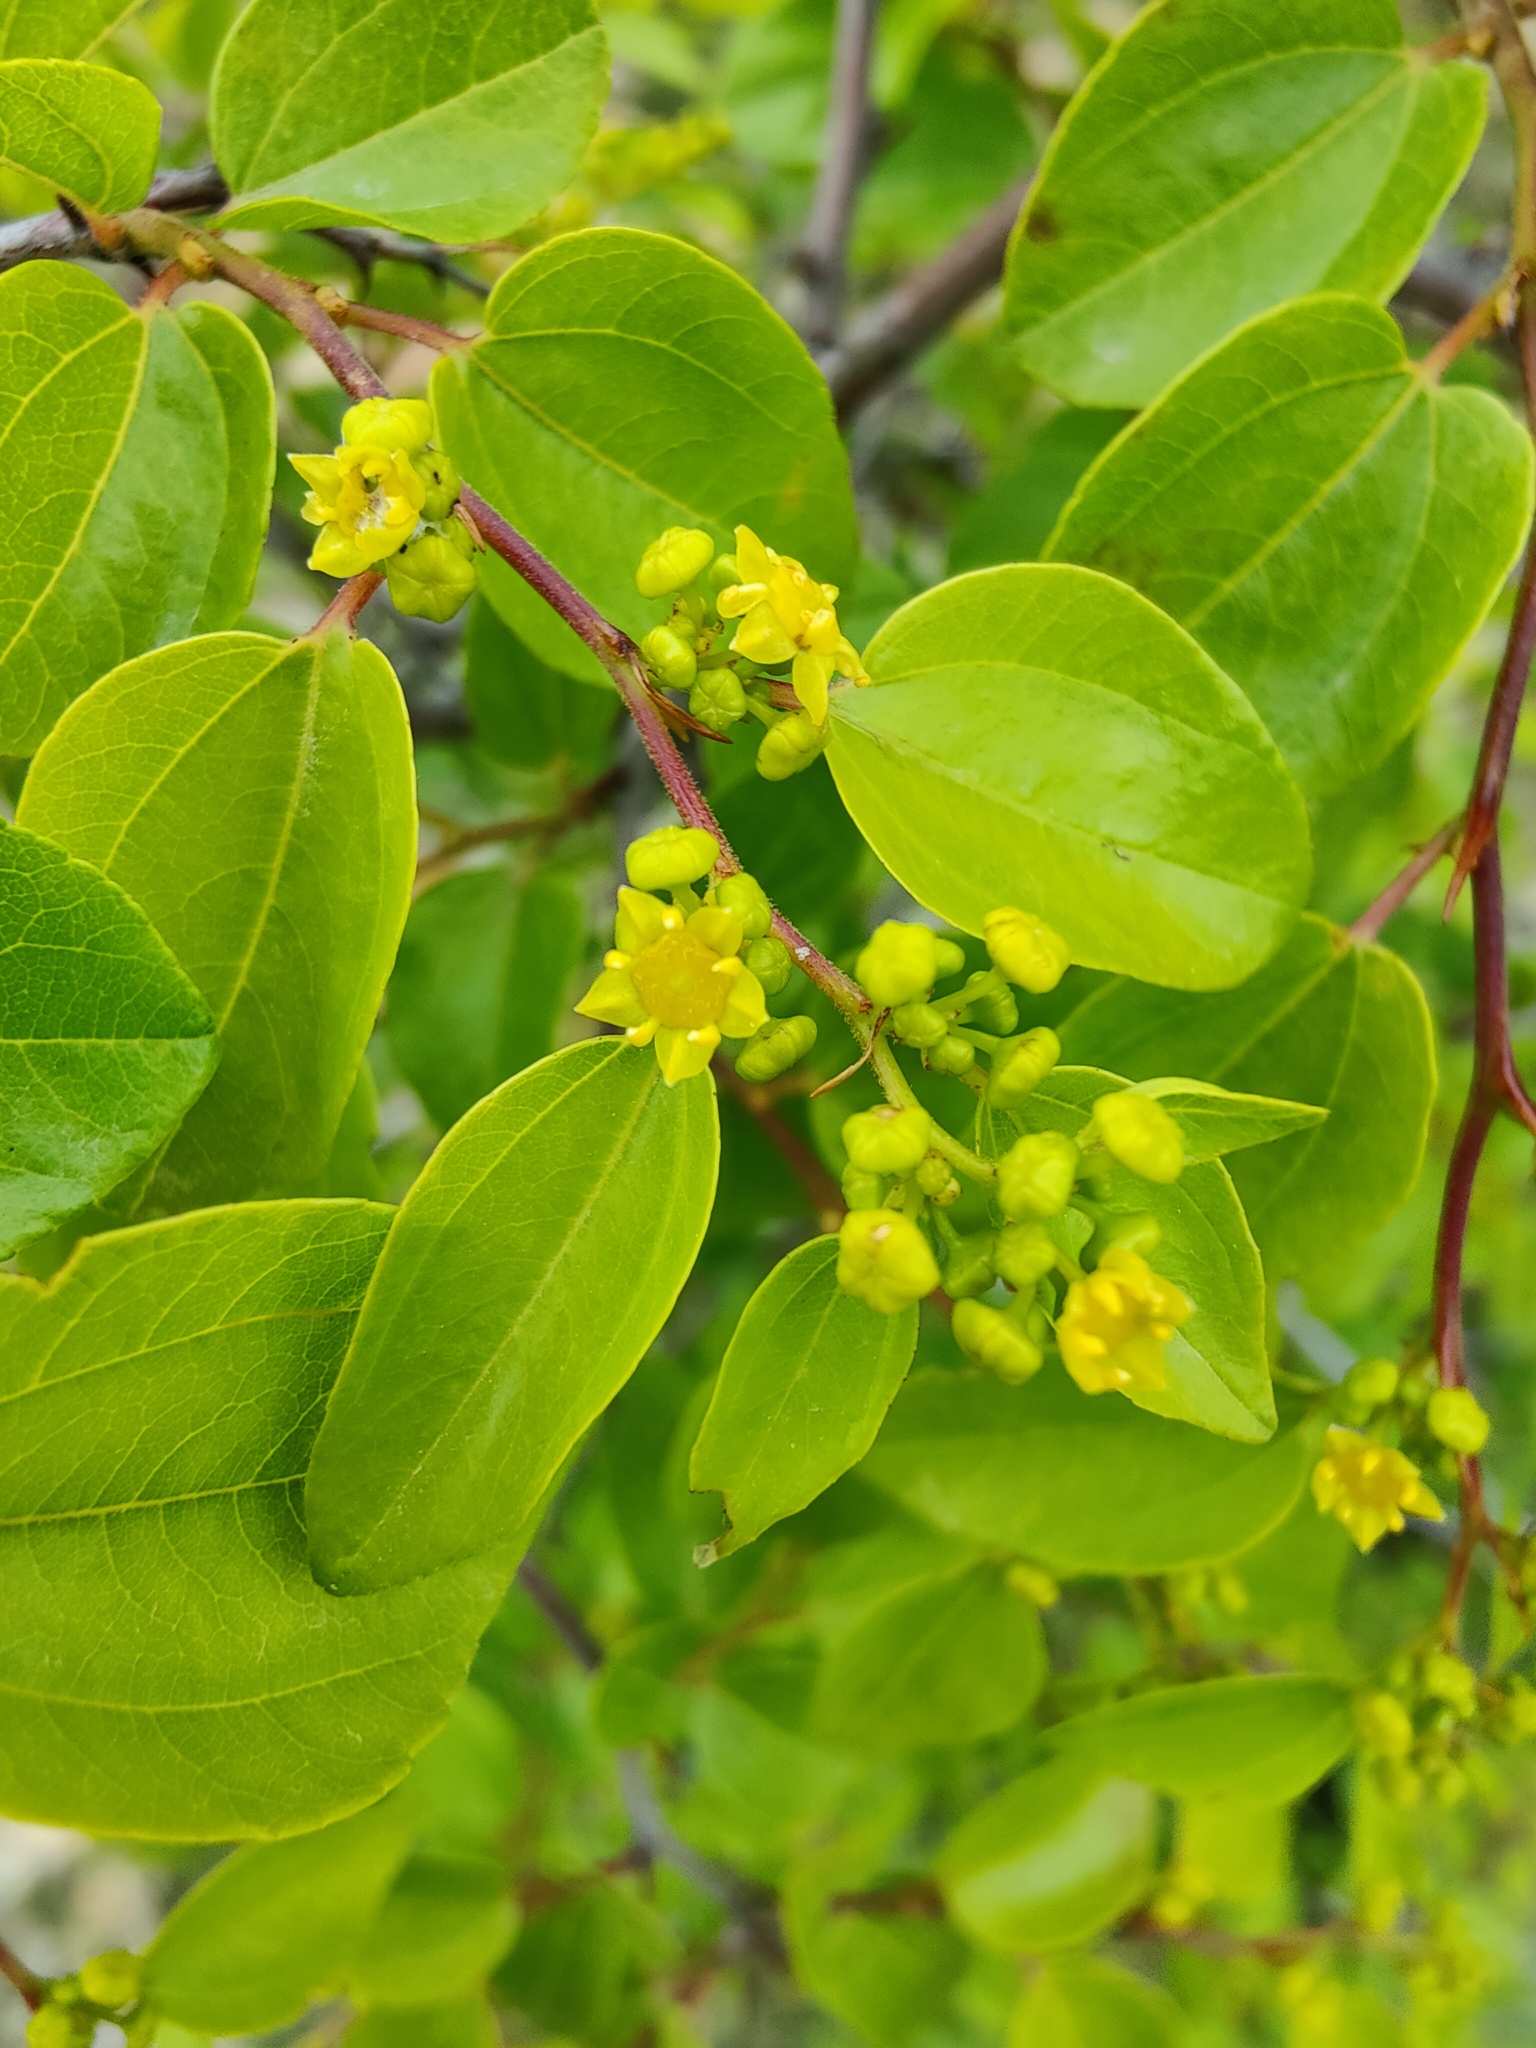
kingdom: Plantae
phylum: Tracheophyta
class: Magnoliopsida
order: Rosales
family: Rhamnaceae
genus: Paliurus
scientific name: Paliurus spina-christi
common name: Jeruselem thorn
